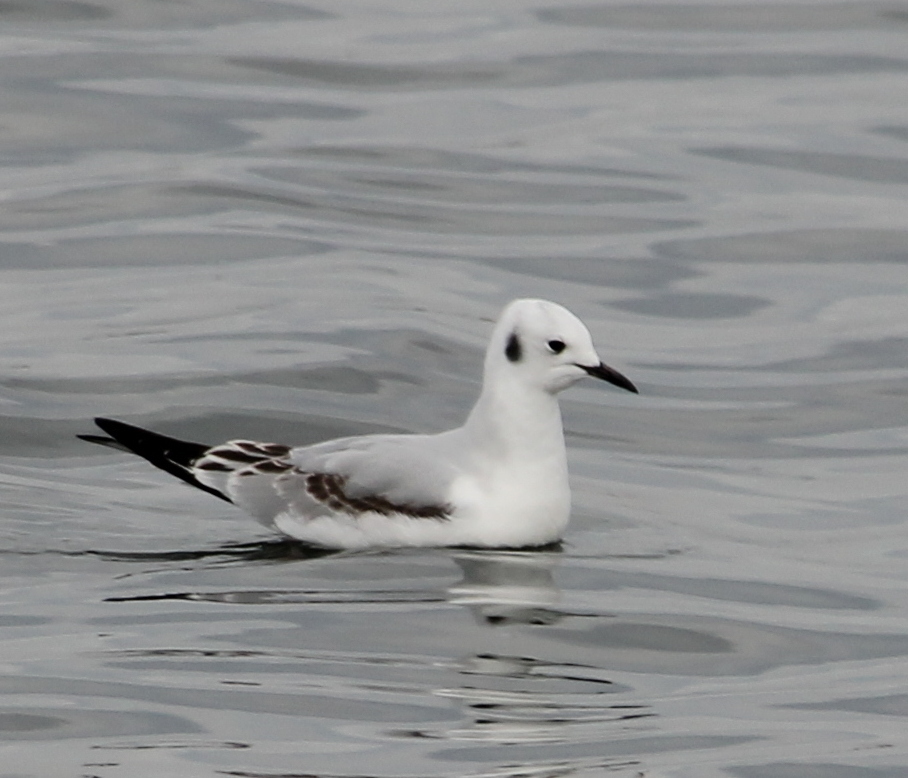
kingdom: Animalia
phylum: Chordata
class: Aves
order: Charadriiformes
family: Laridae
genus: Chroicocephalus
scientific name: Chroicocephalus philadelphia
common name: Bonaparte's gull
